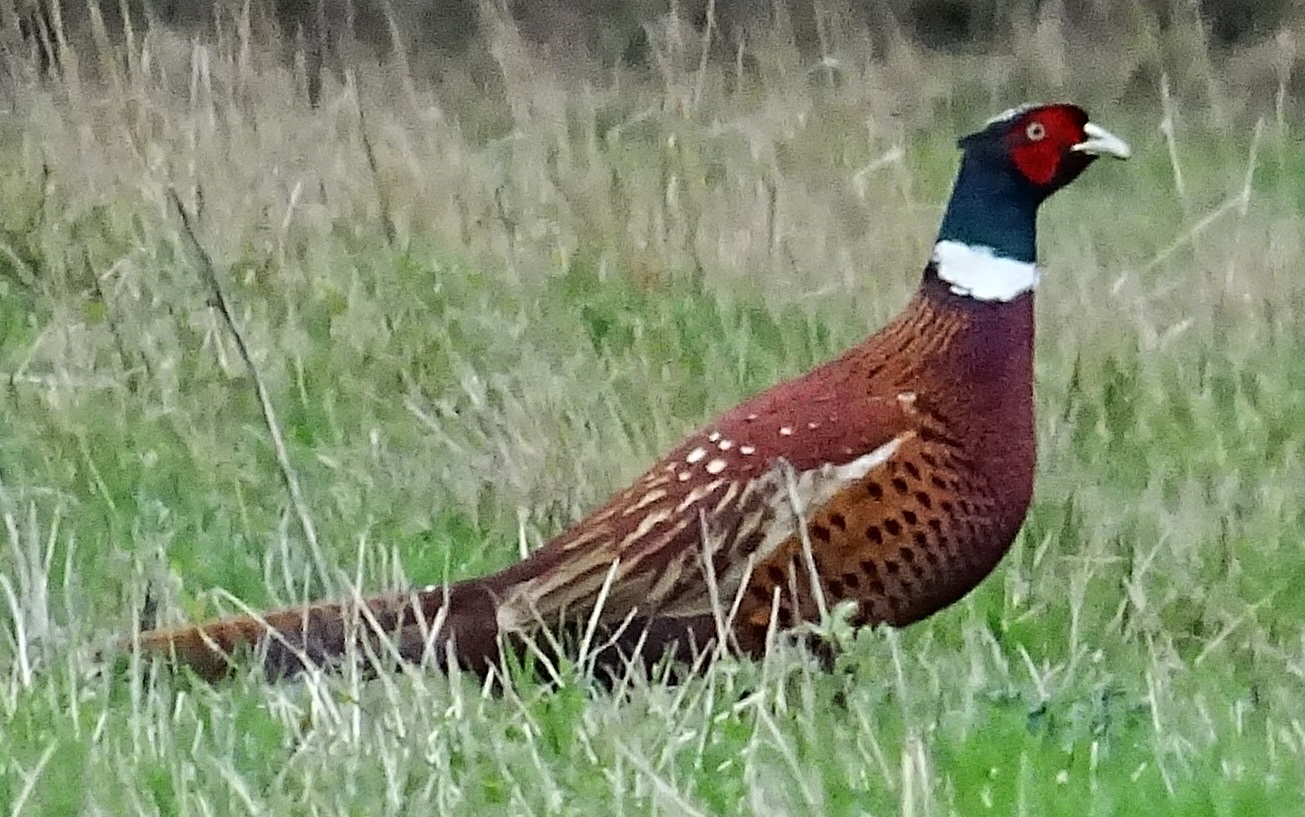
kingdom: Animalia
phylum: Chordata
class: Aves
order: Galliformes
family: Phasianidae
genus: Phasianus
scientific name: Phasianus colchicus
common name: Common pheasant
